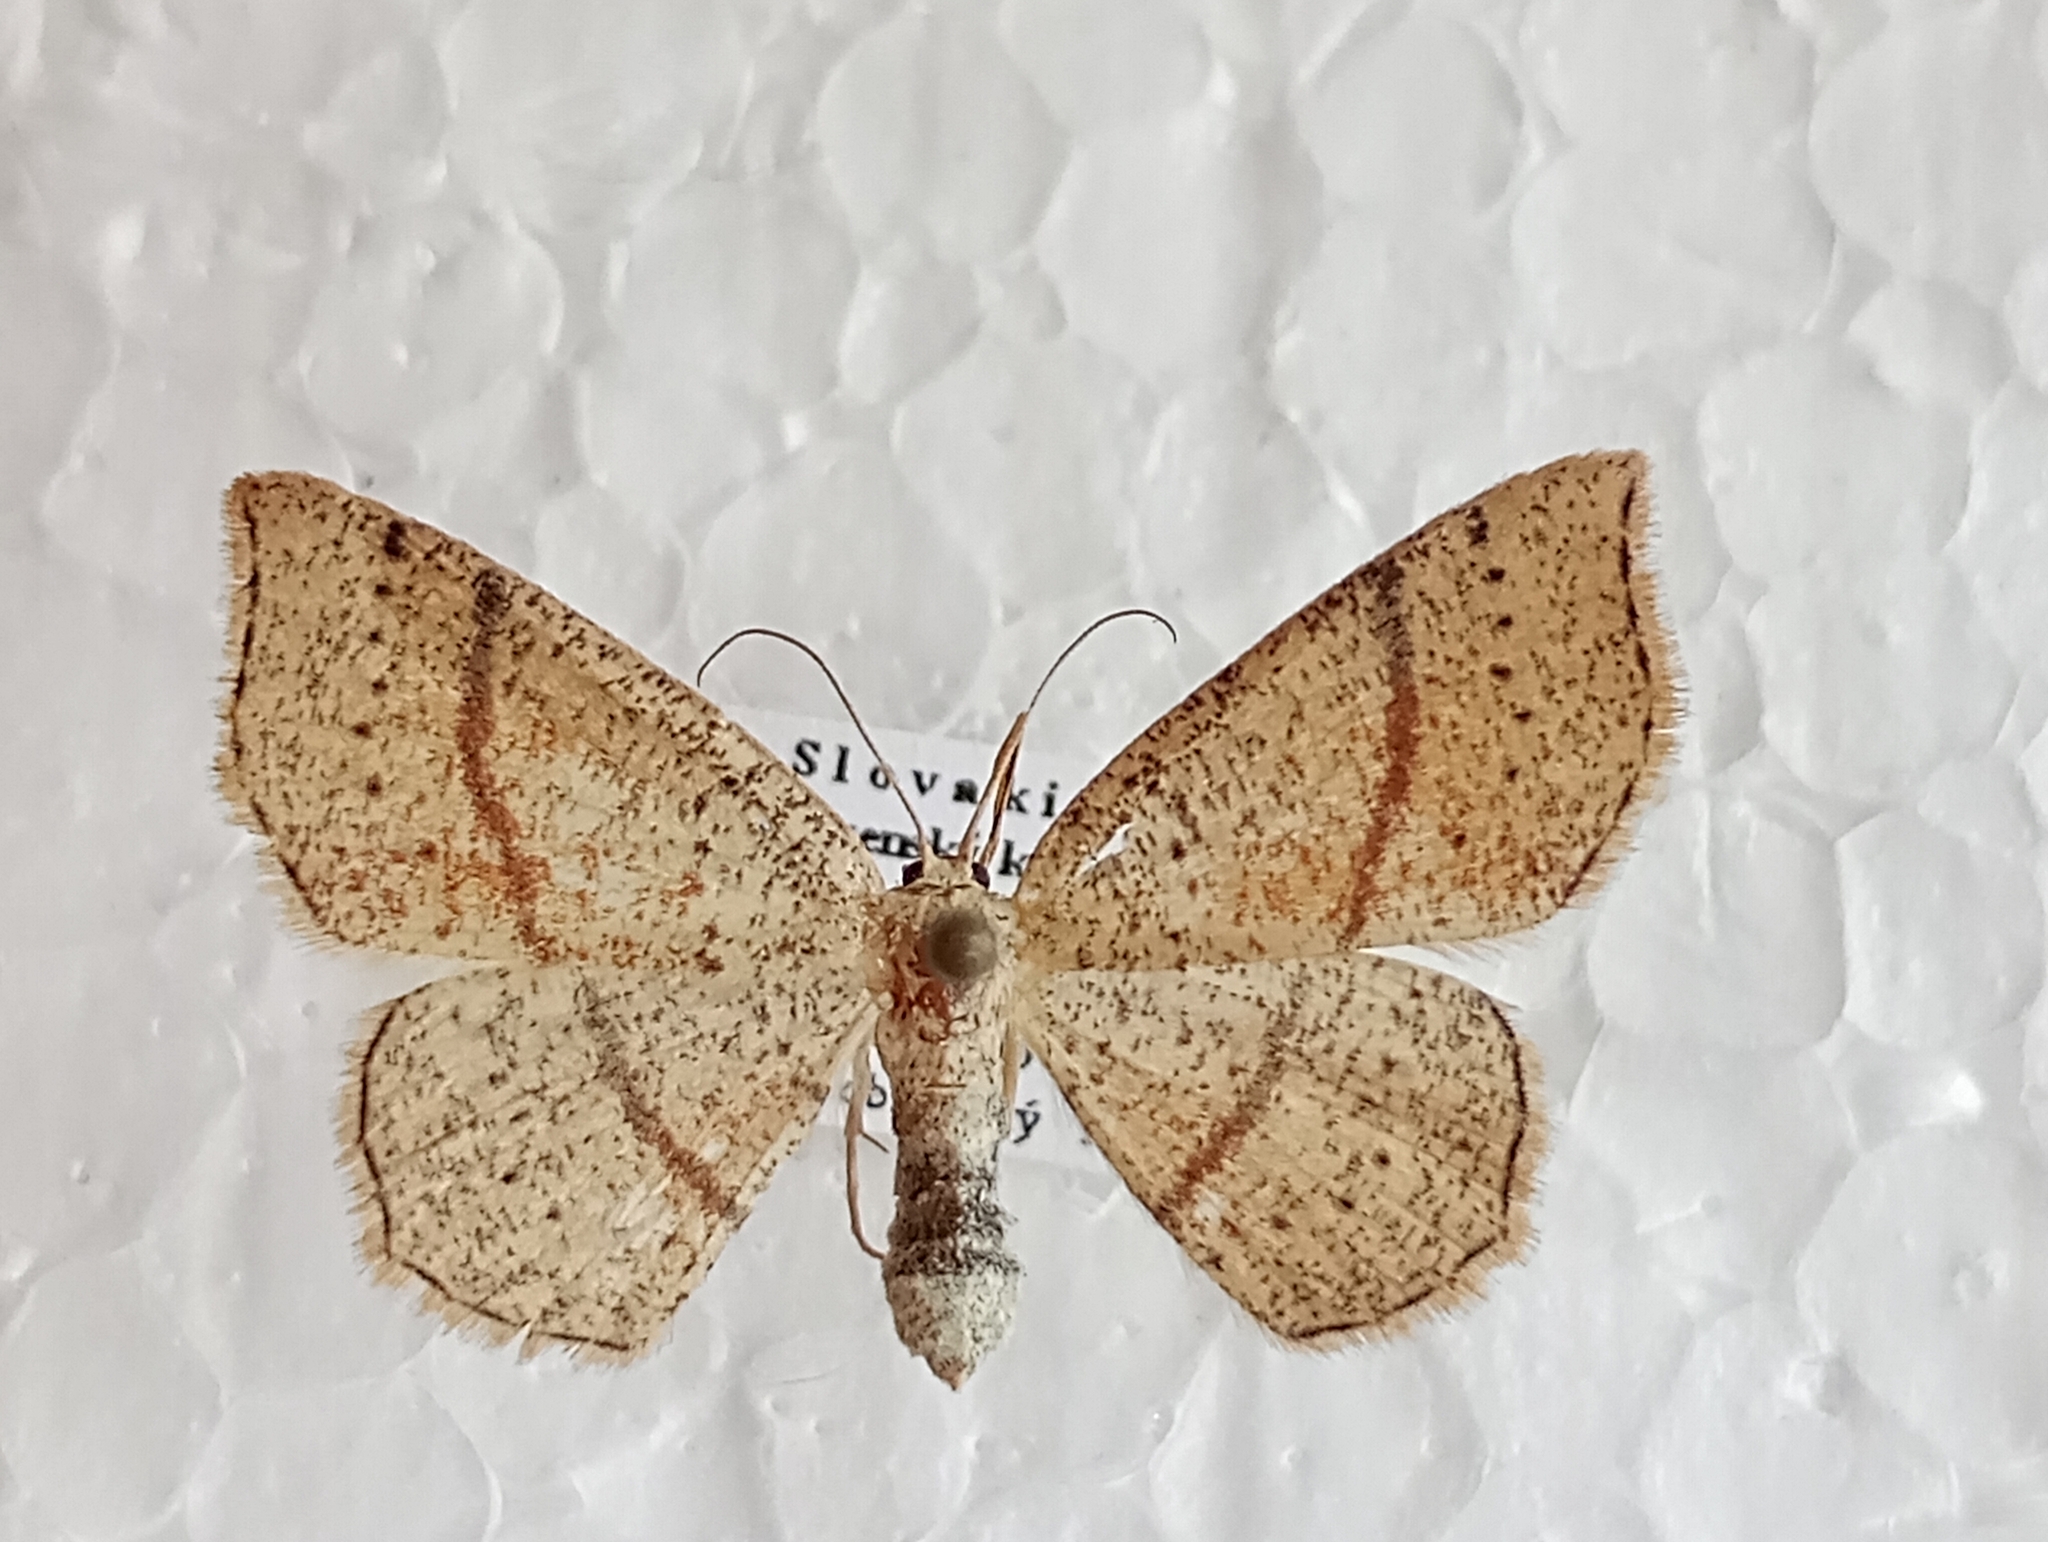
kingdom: Animalia
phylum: Arthropoda
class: Insecta
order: Lepidoptera
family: Geometridae
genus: Cyclophora
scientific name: Cyclophora punctaria
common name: Maiden's blush
